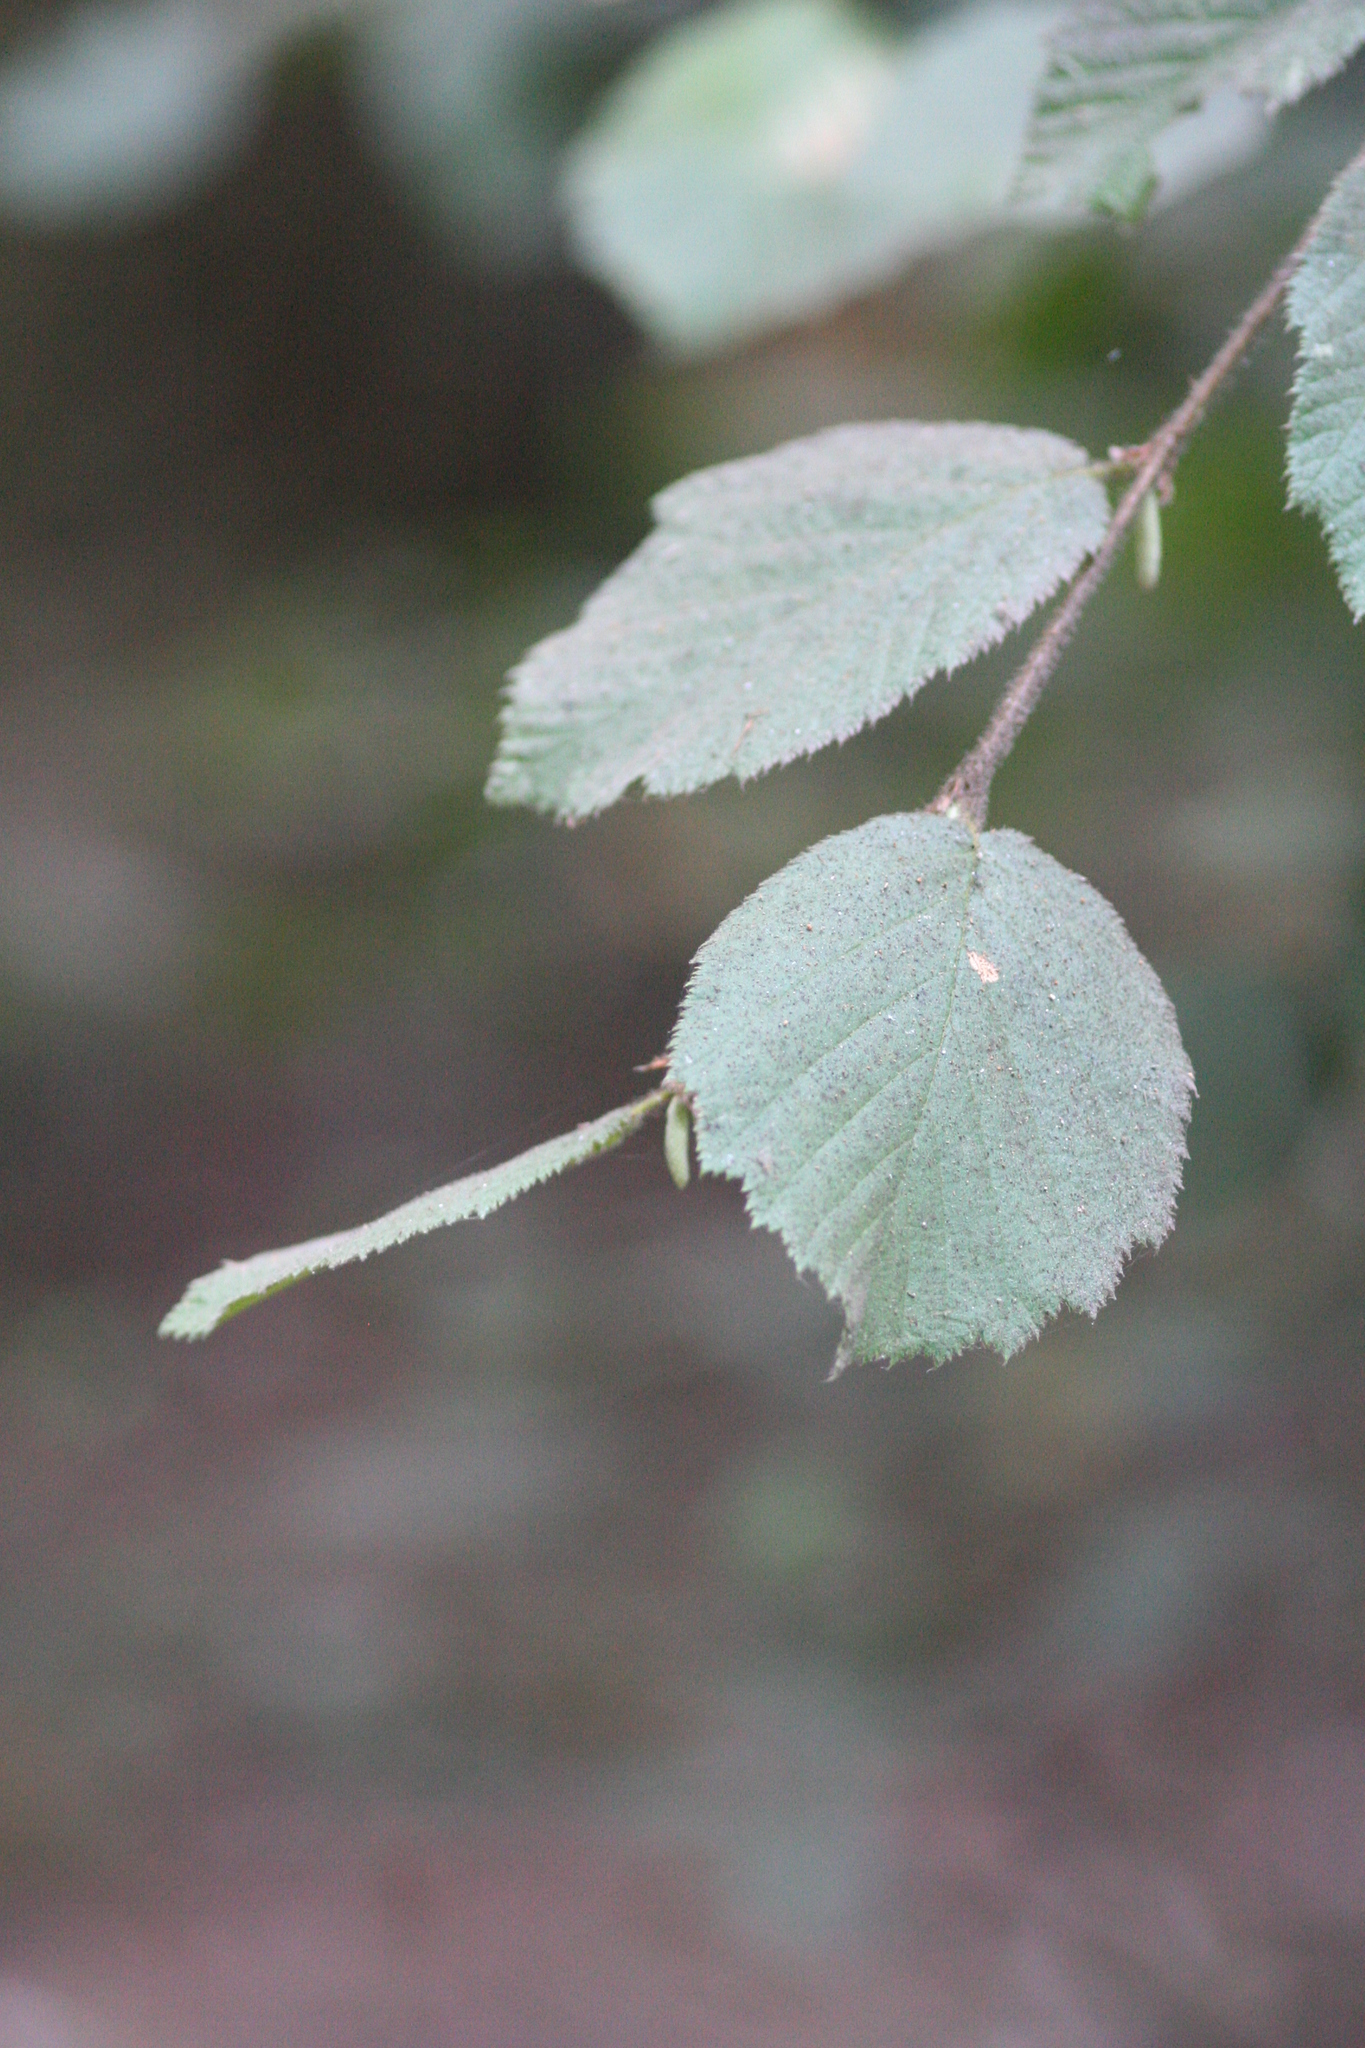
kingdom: Plantae
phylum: Tracheophyta
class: Magnoliopsida
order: Fagales
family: Betulaceae
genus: Corylus
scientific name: Corylus cornuta
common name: Beaked hazel
